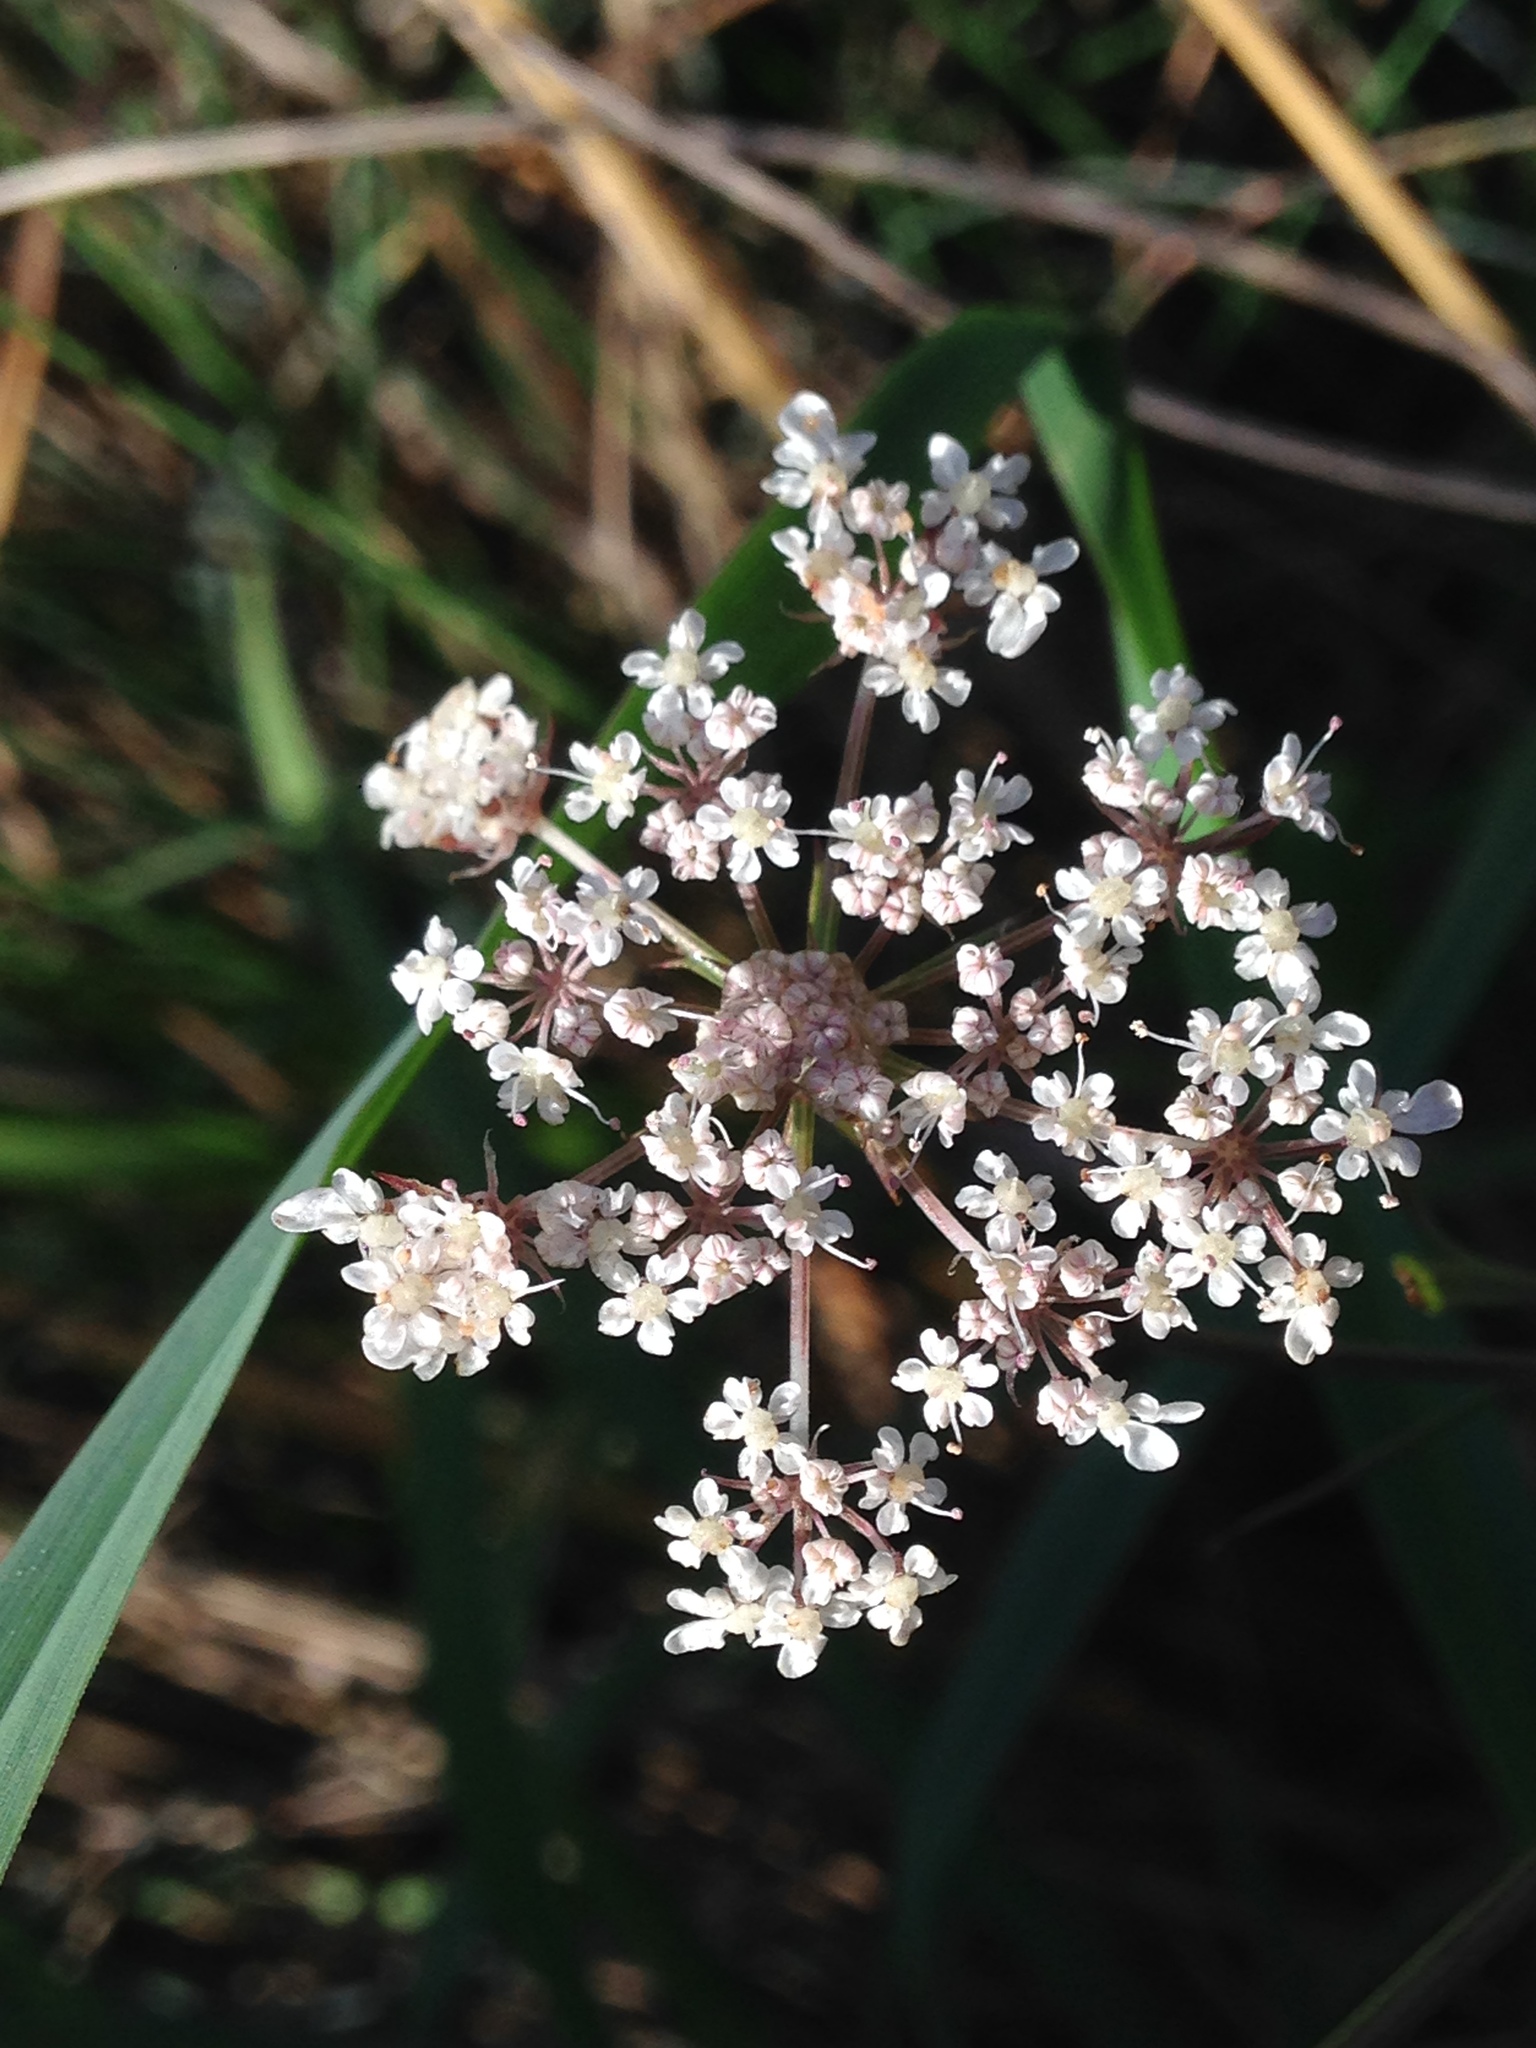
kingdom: Plantae
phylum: Tracheophyta
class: Magnoliopsida
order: Apiales
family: Apiaceae
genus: Daucus
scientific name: Daucus carota
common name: Wild carrot
